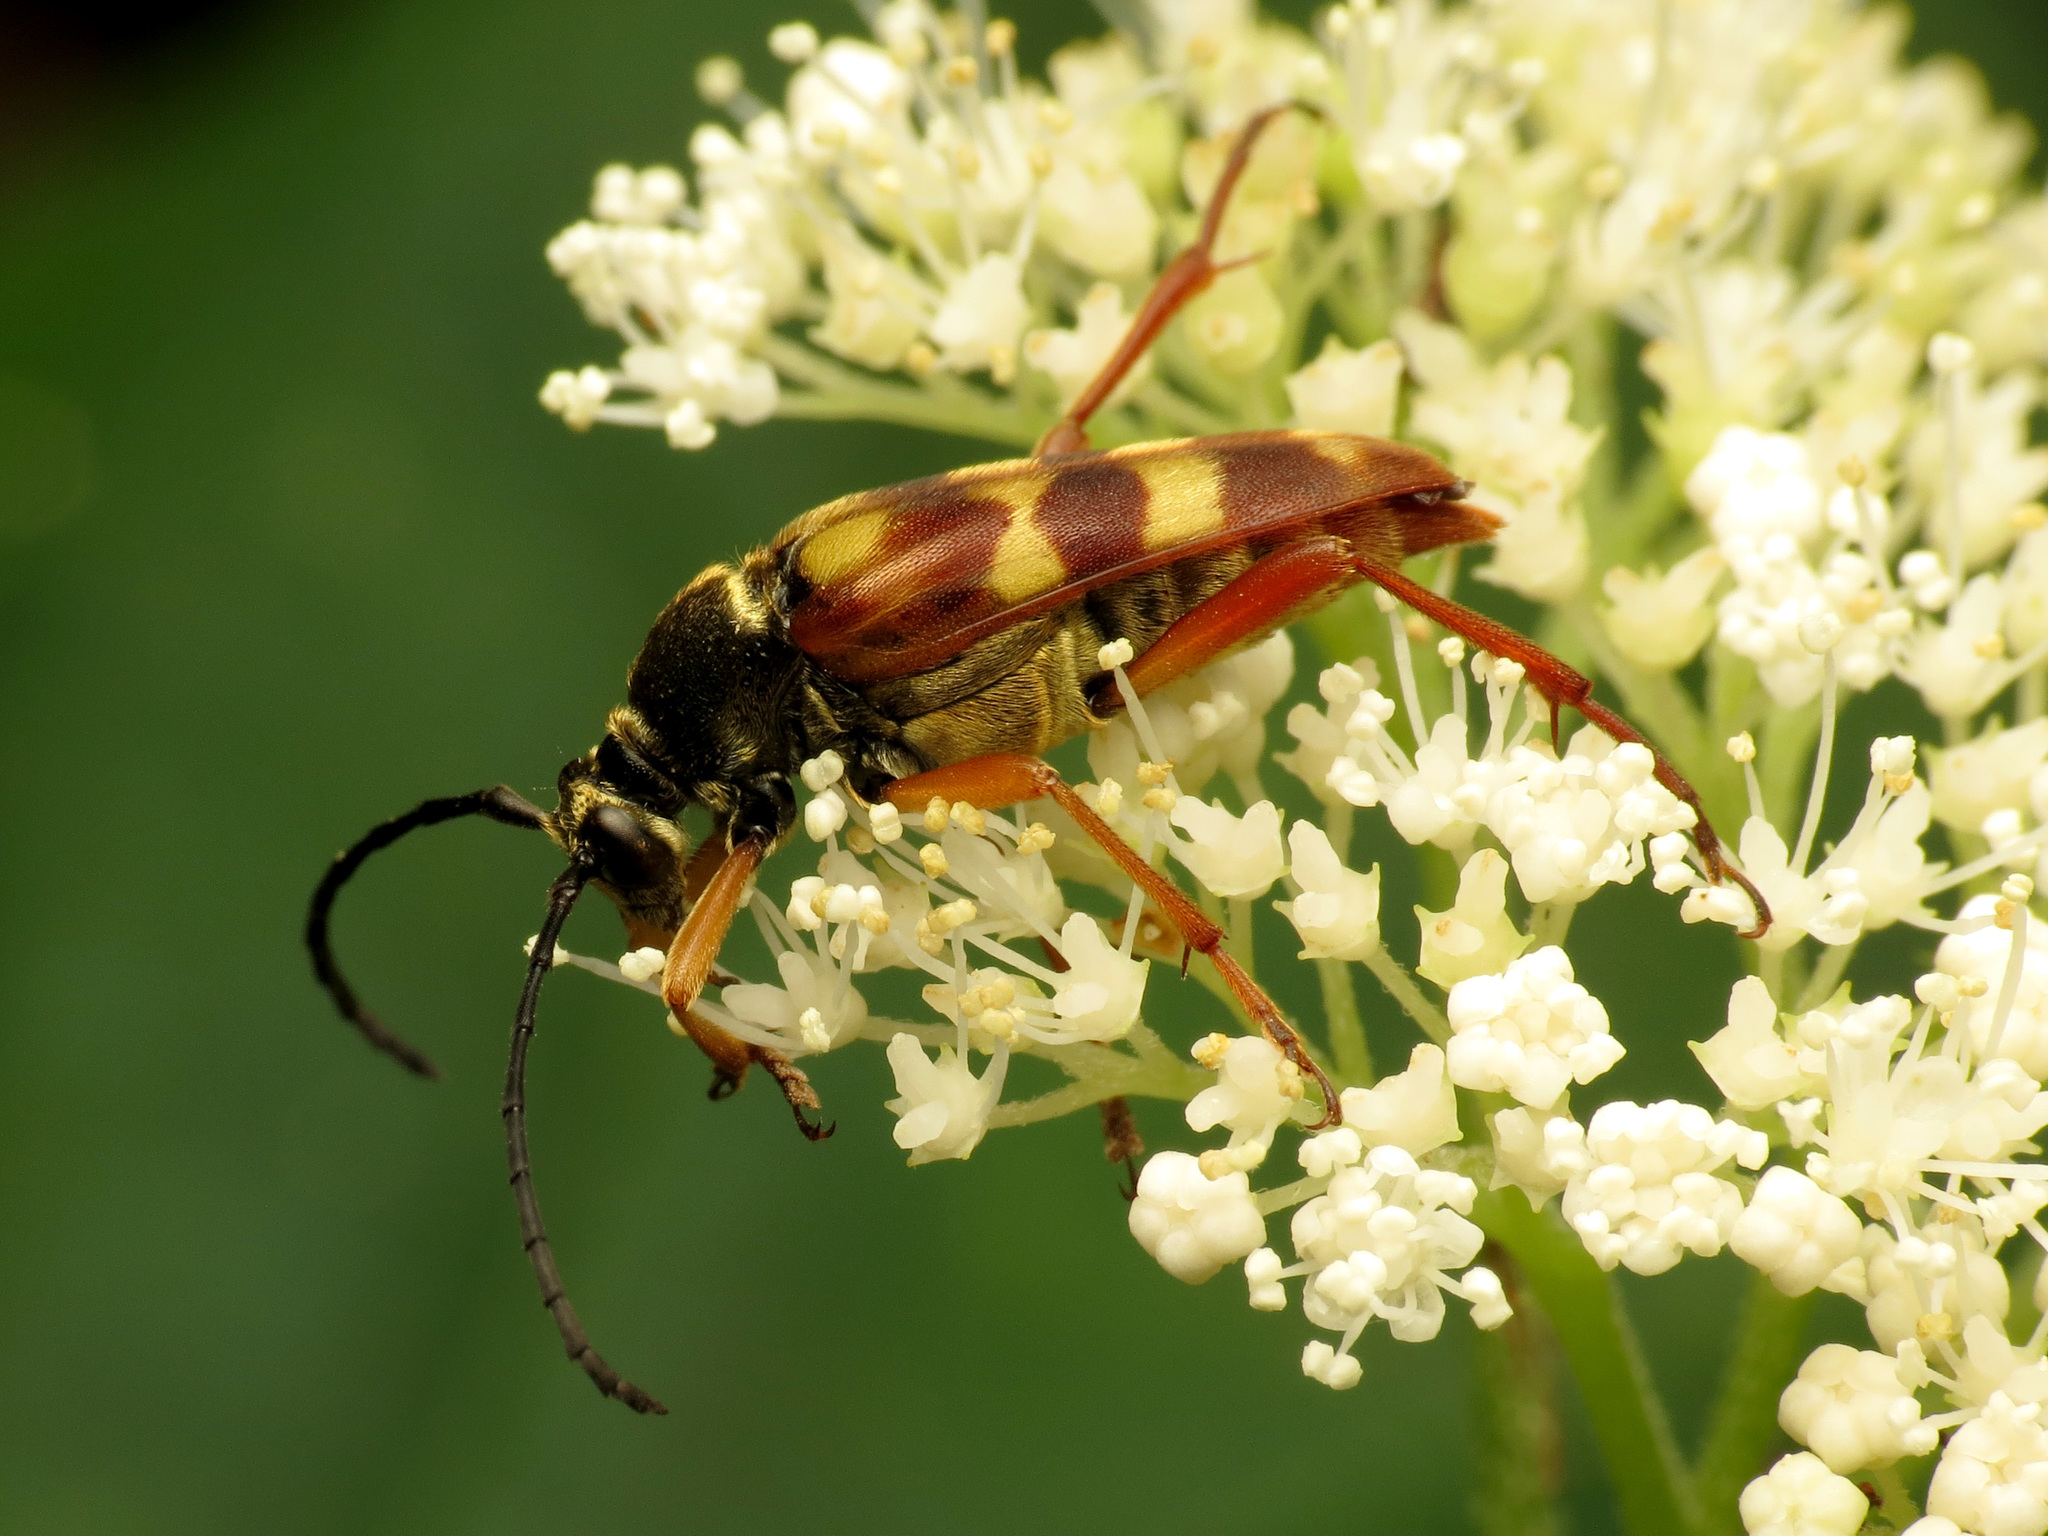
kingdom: Animalia
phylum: Arthropoda
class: Insecta
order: Coleoptera
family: Cerambycidae
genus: Typocerus
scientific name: Typocerus velutinus
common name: Banded longhorn beetle
